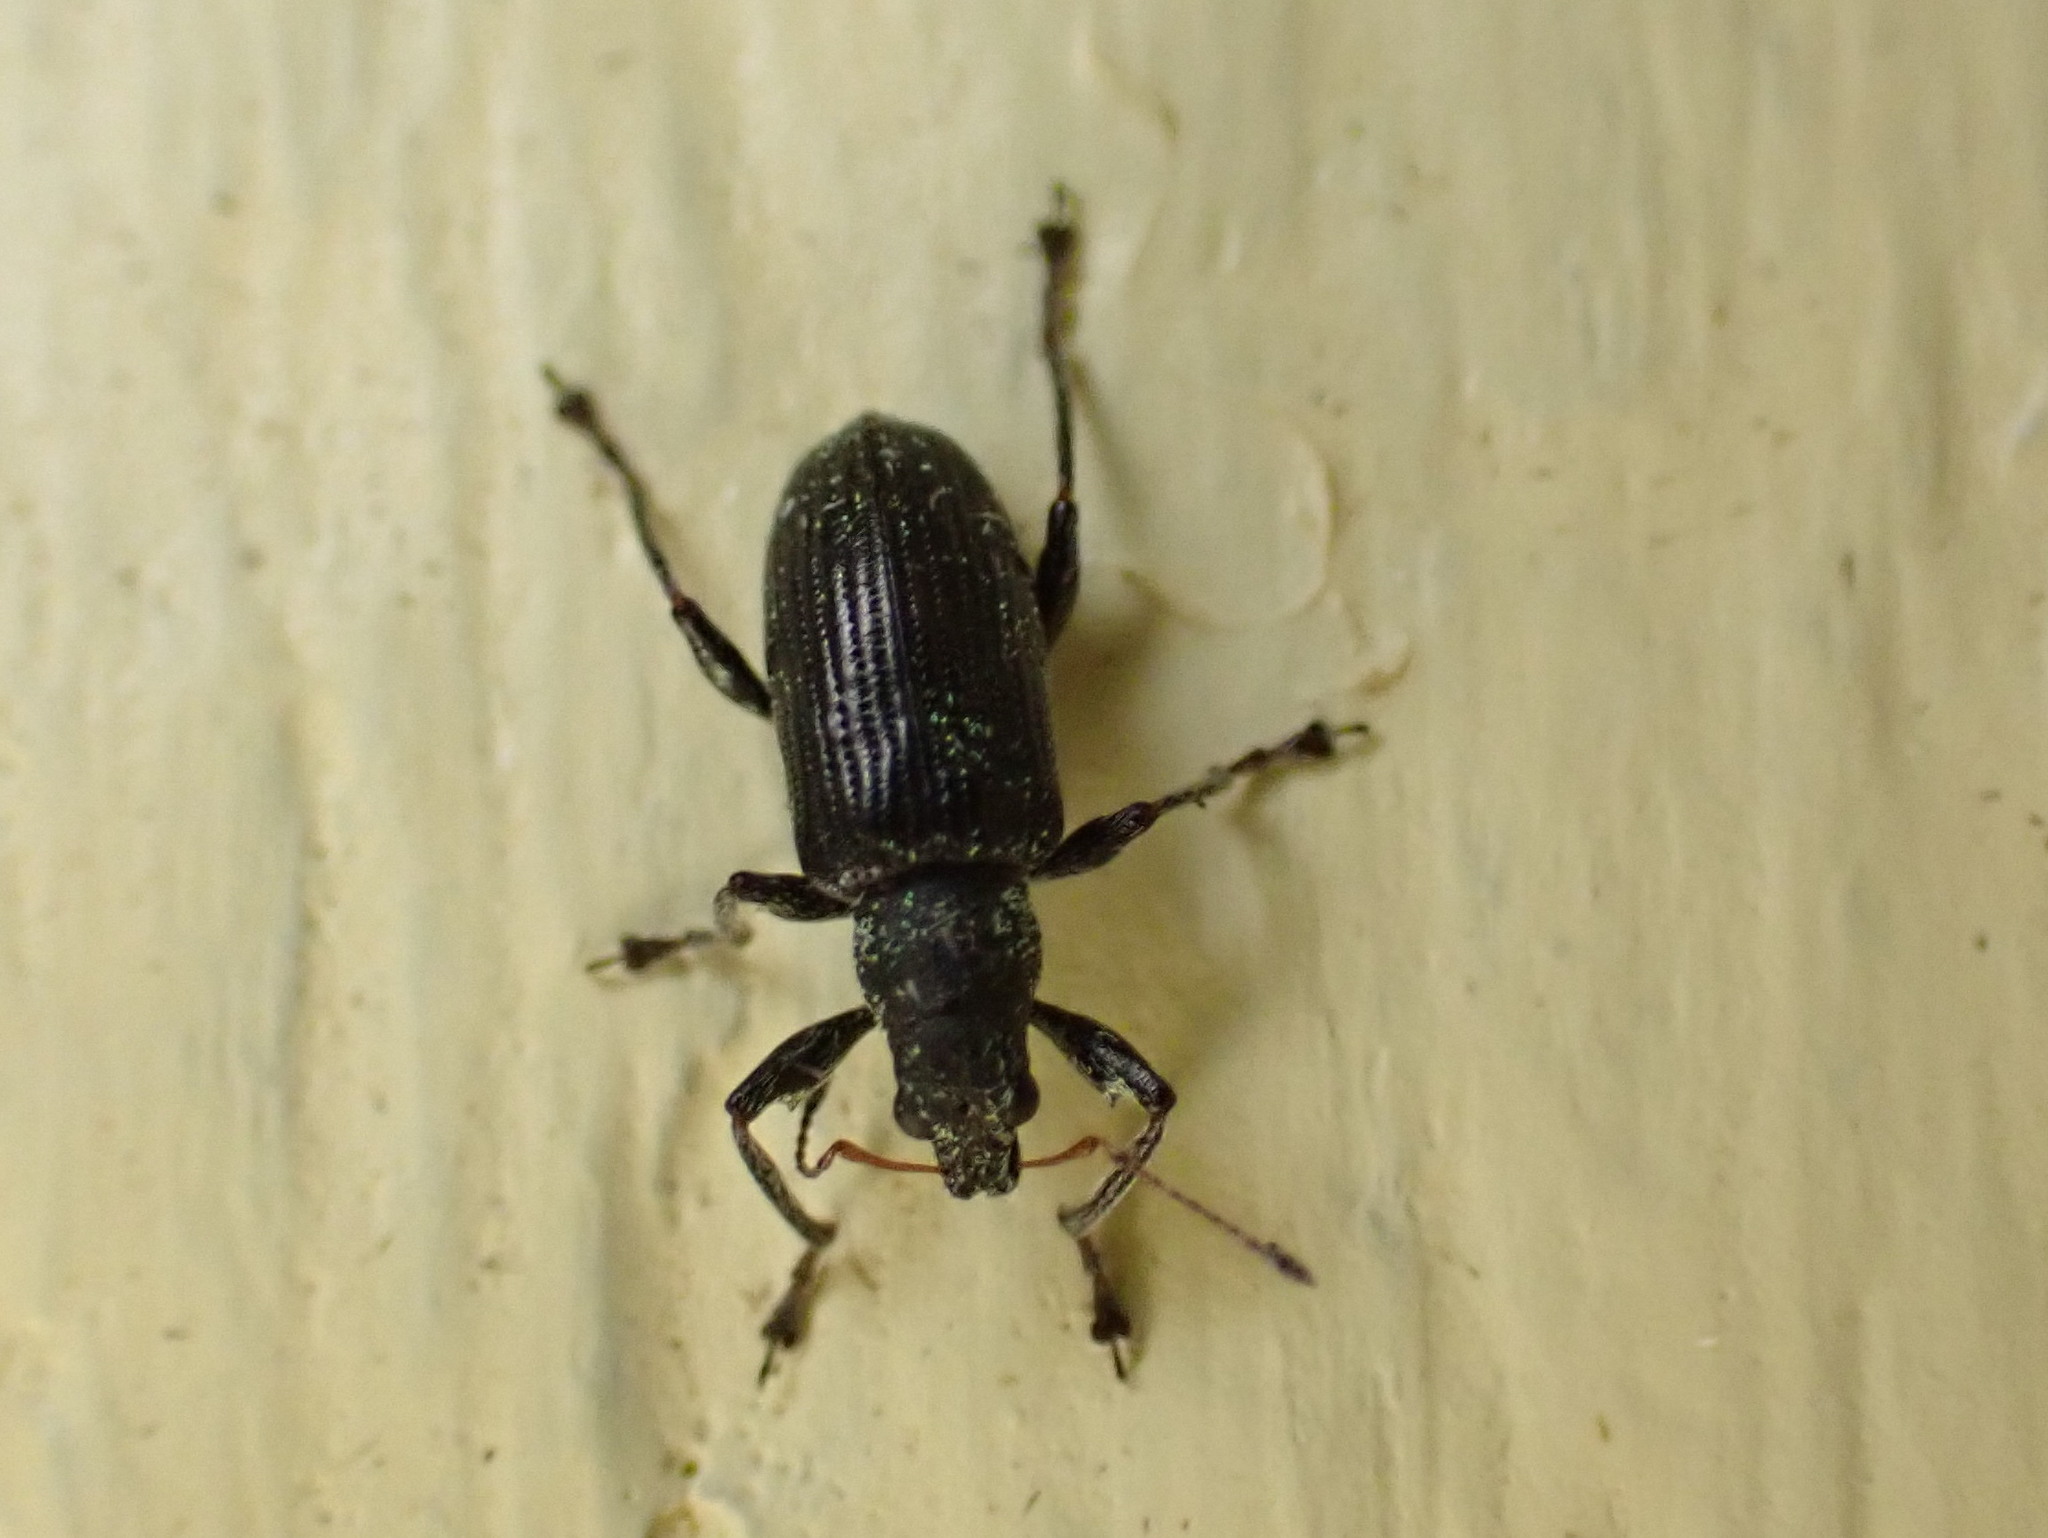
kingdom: Animalia
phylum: Arthropoda
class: Insecta
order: Coleoptera
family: Curculionidae
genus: Polydrusus
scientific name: Polydrusus cervinus
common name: Weevil
